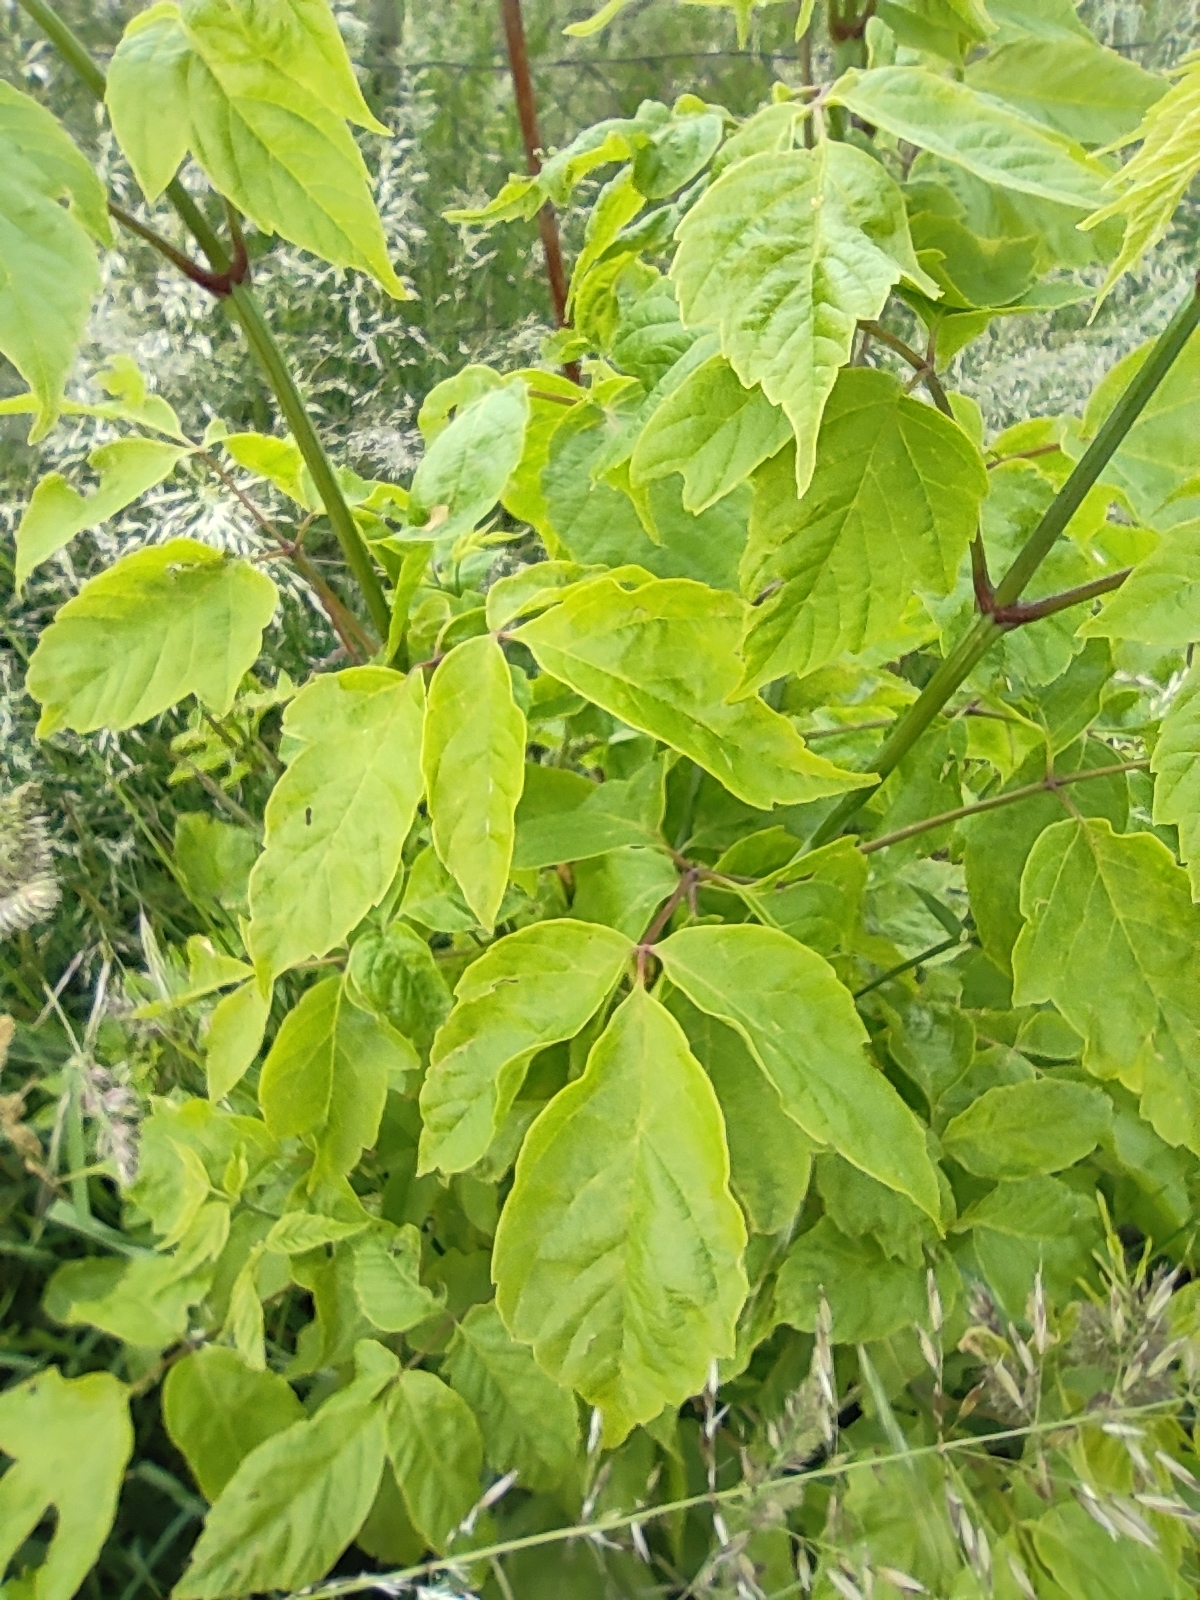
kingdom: Plantae
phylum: Tracheophyta
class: Magnoliopsida
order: Sapindales
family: Sapindaceae
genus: Acer
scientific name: Acer negundo
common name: Ashleaf maple
